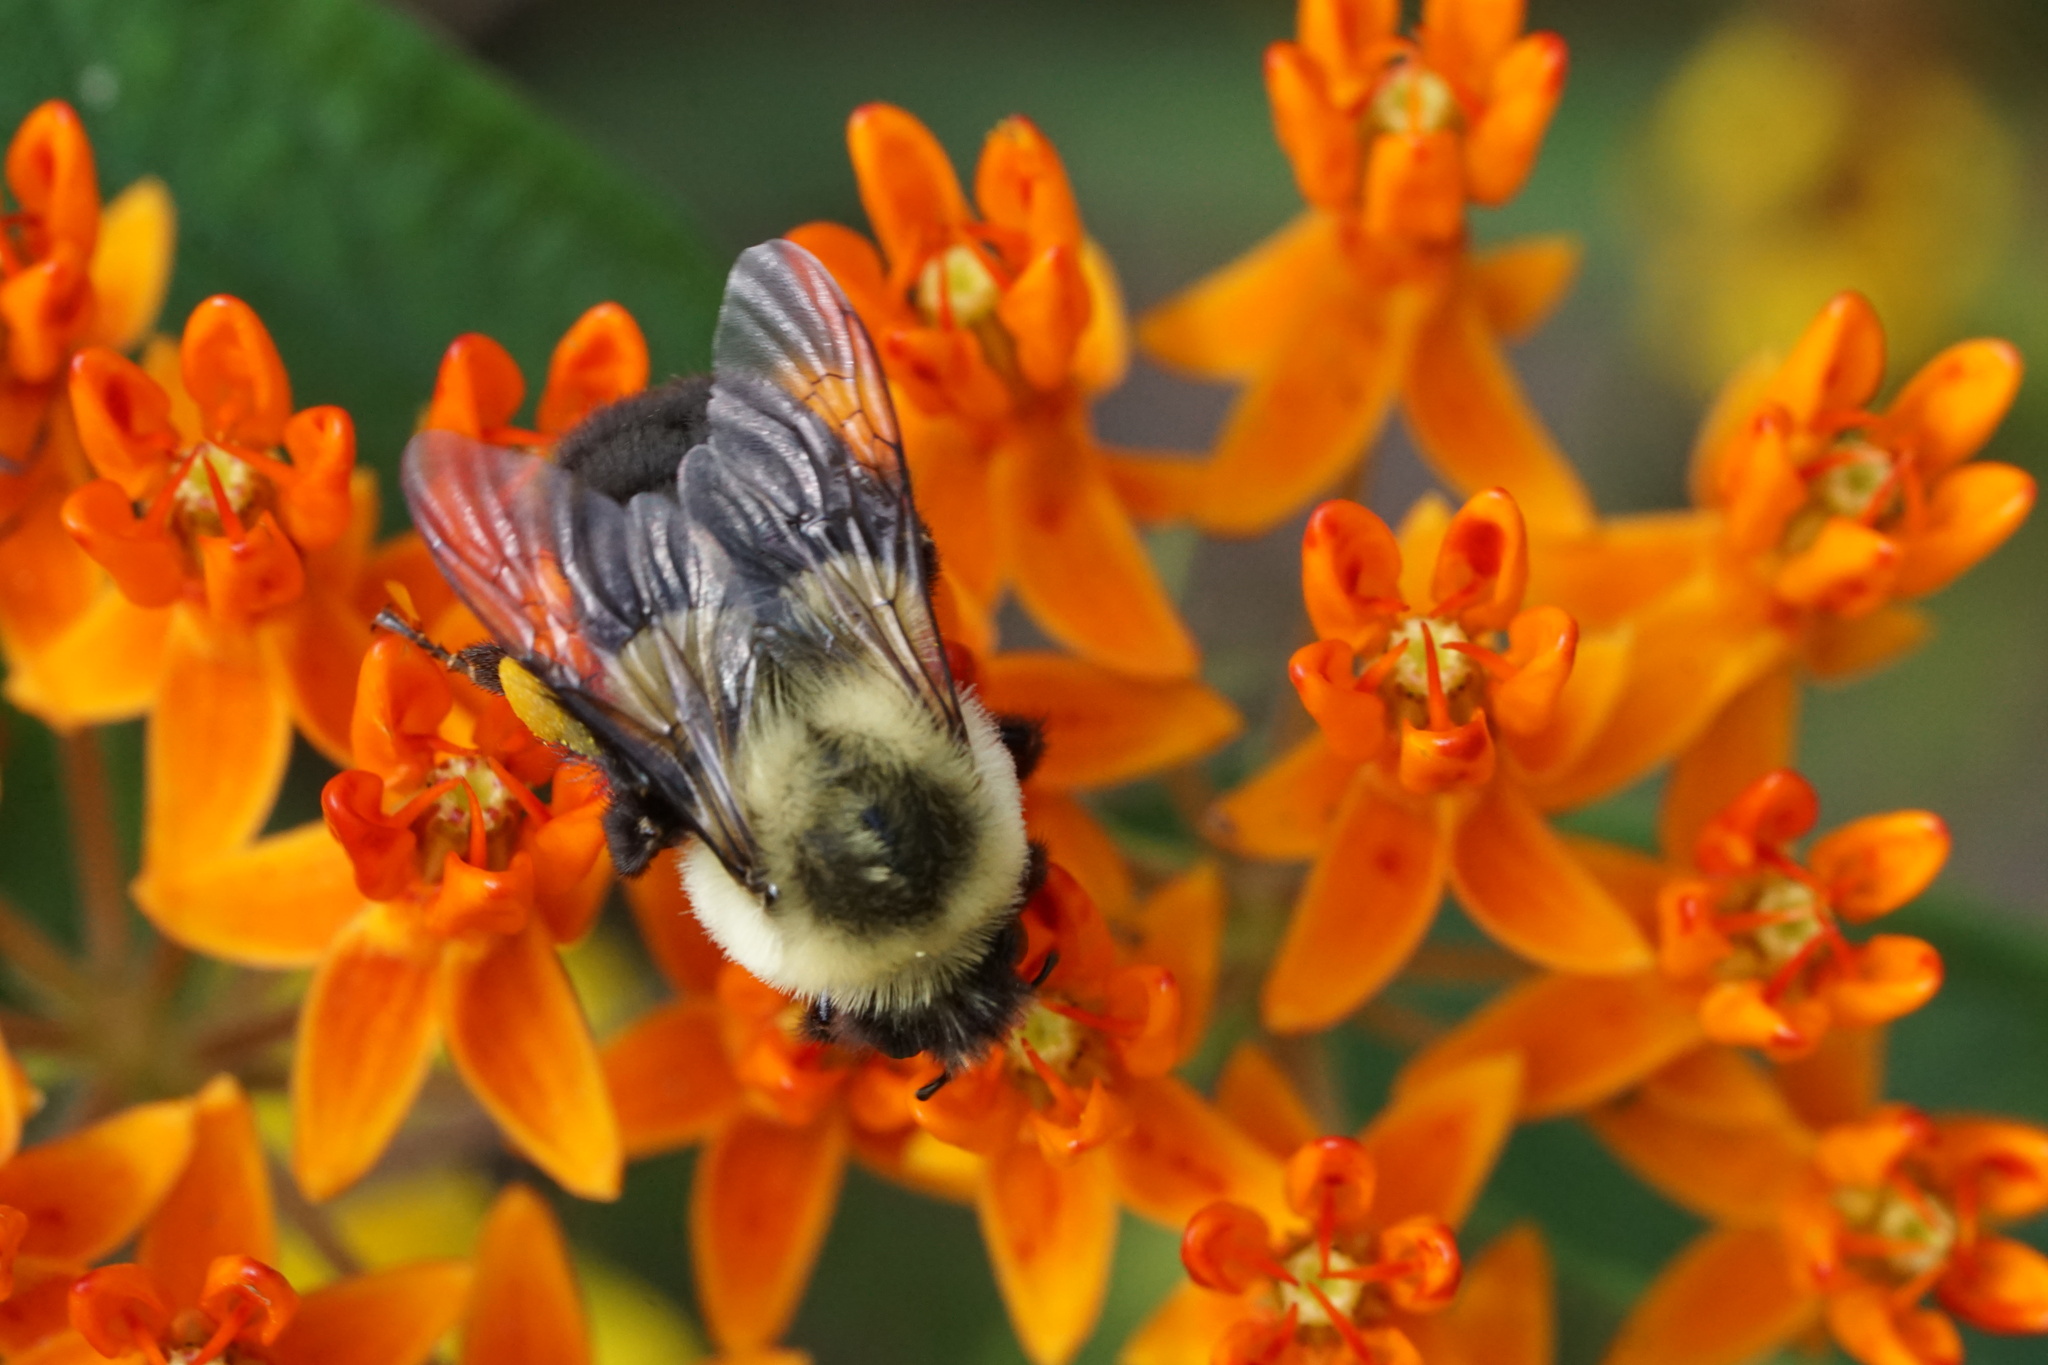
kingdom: Plantae
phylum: Tracheophyta
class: Magnoliopsida
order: Gentianales
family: Apocynaceae
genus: Asclepias
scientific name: Asclepias tuberosa
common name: Butterfly milkweed
